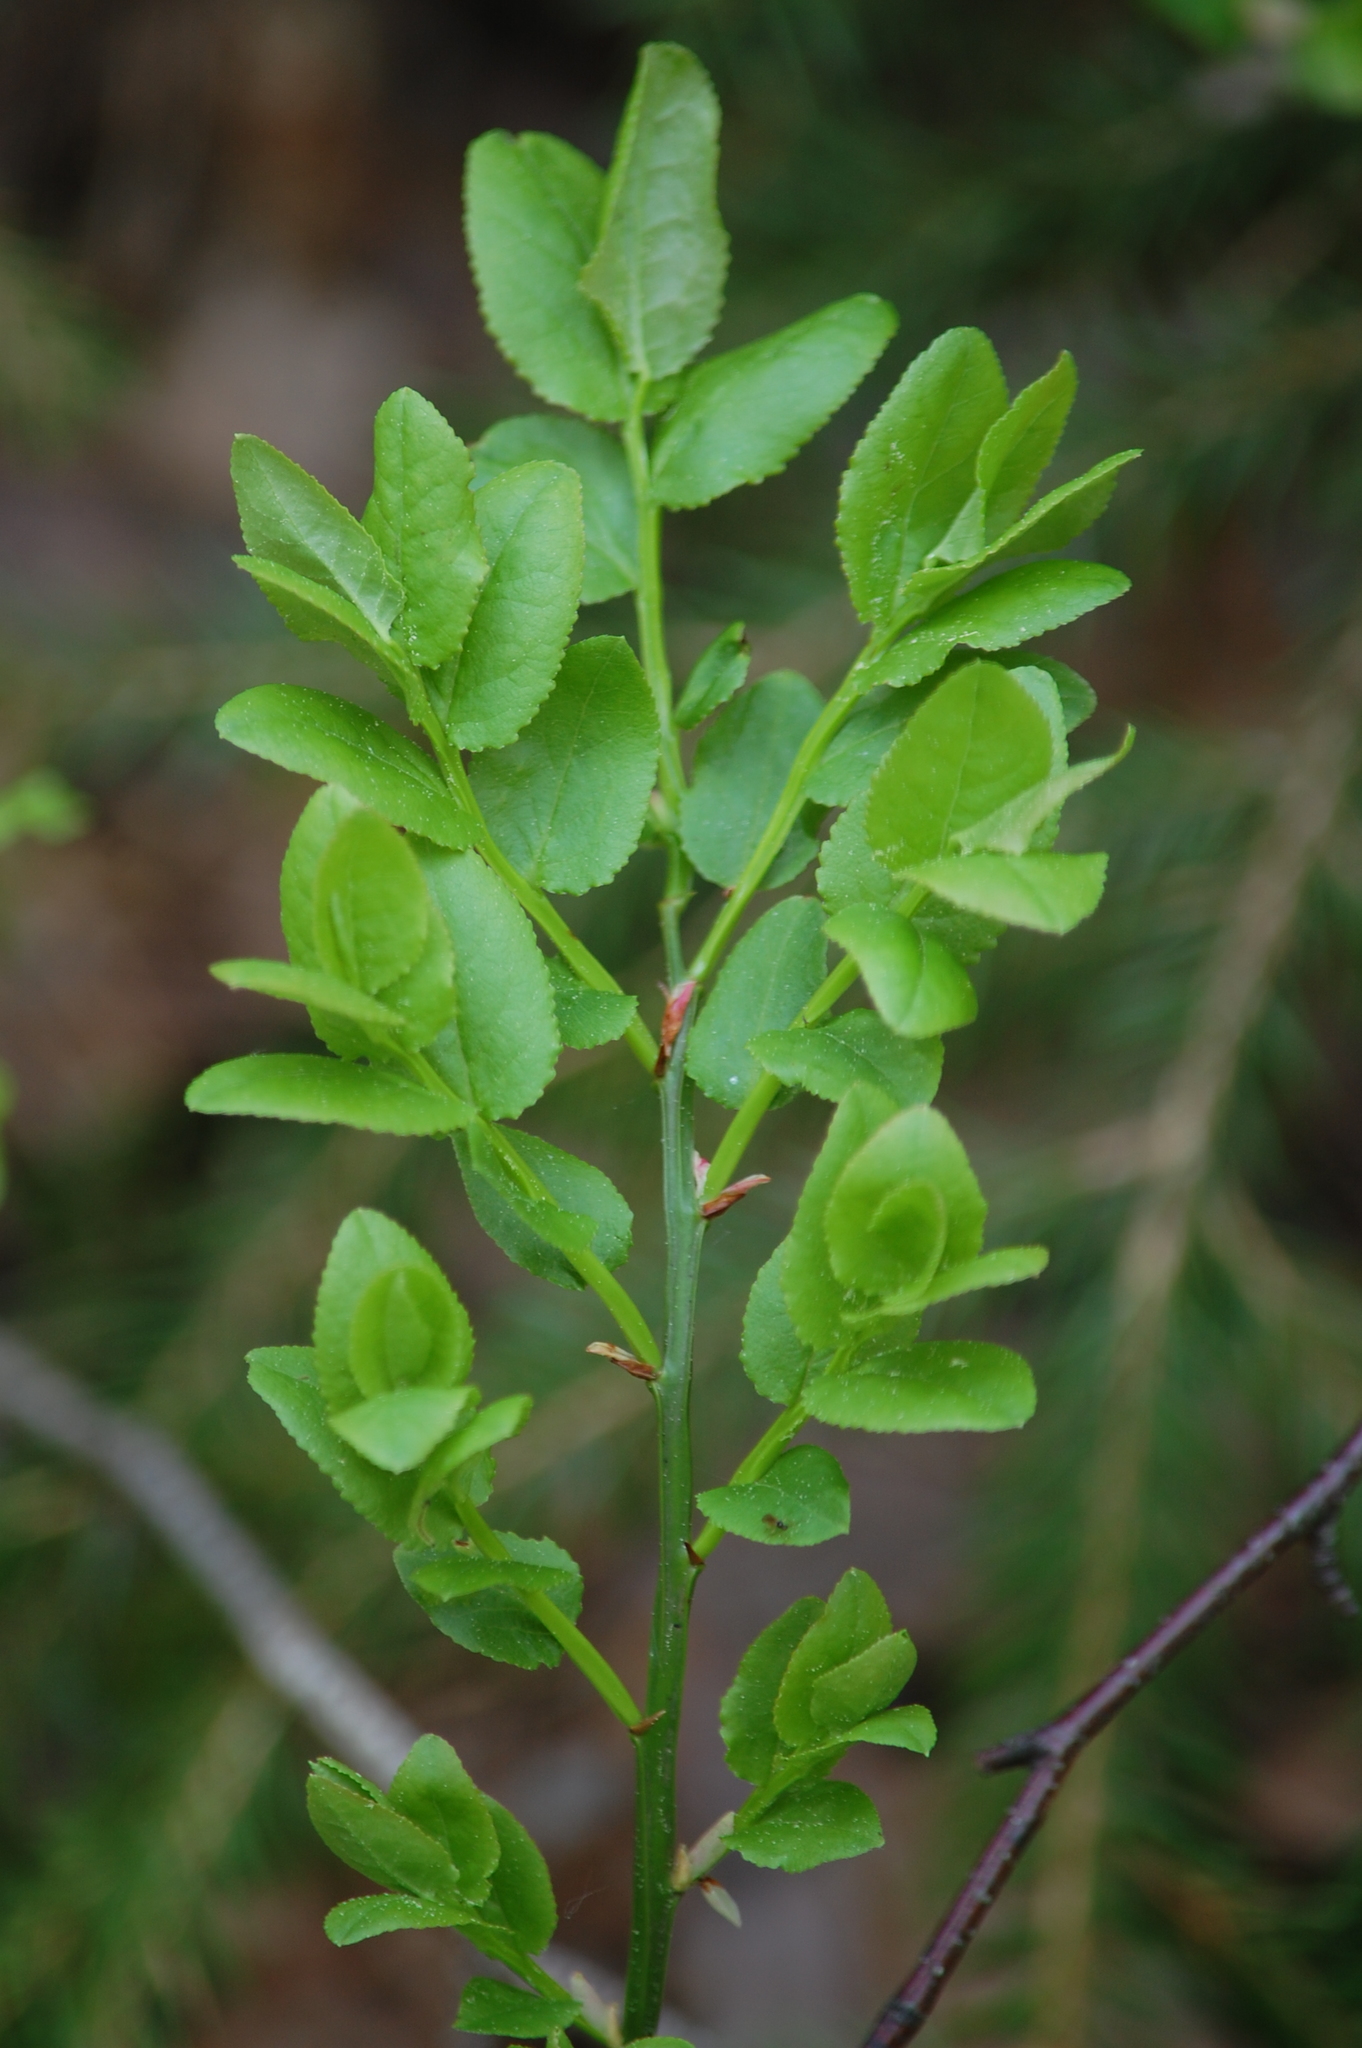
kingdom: Plantae
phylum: Tracheophyta
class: Magnoliopsida
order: Ericales
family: Ericaceae
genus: Vaccinium
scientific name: Vaccinium myrtillus
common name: Bilberry
